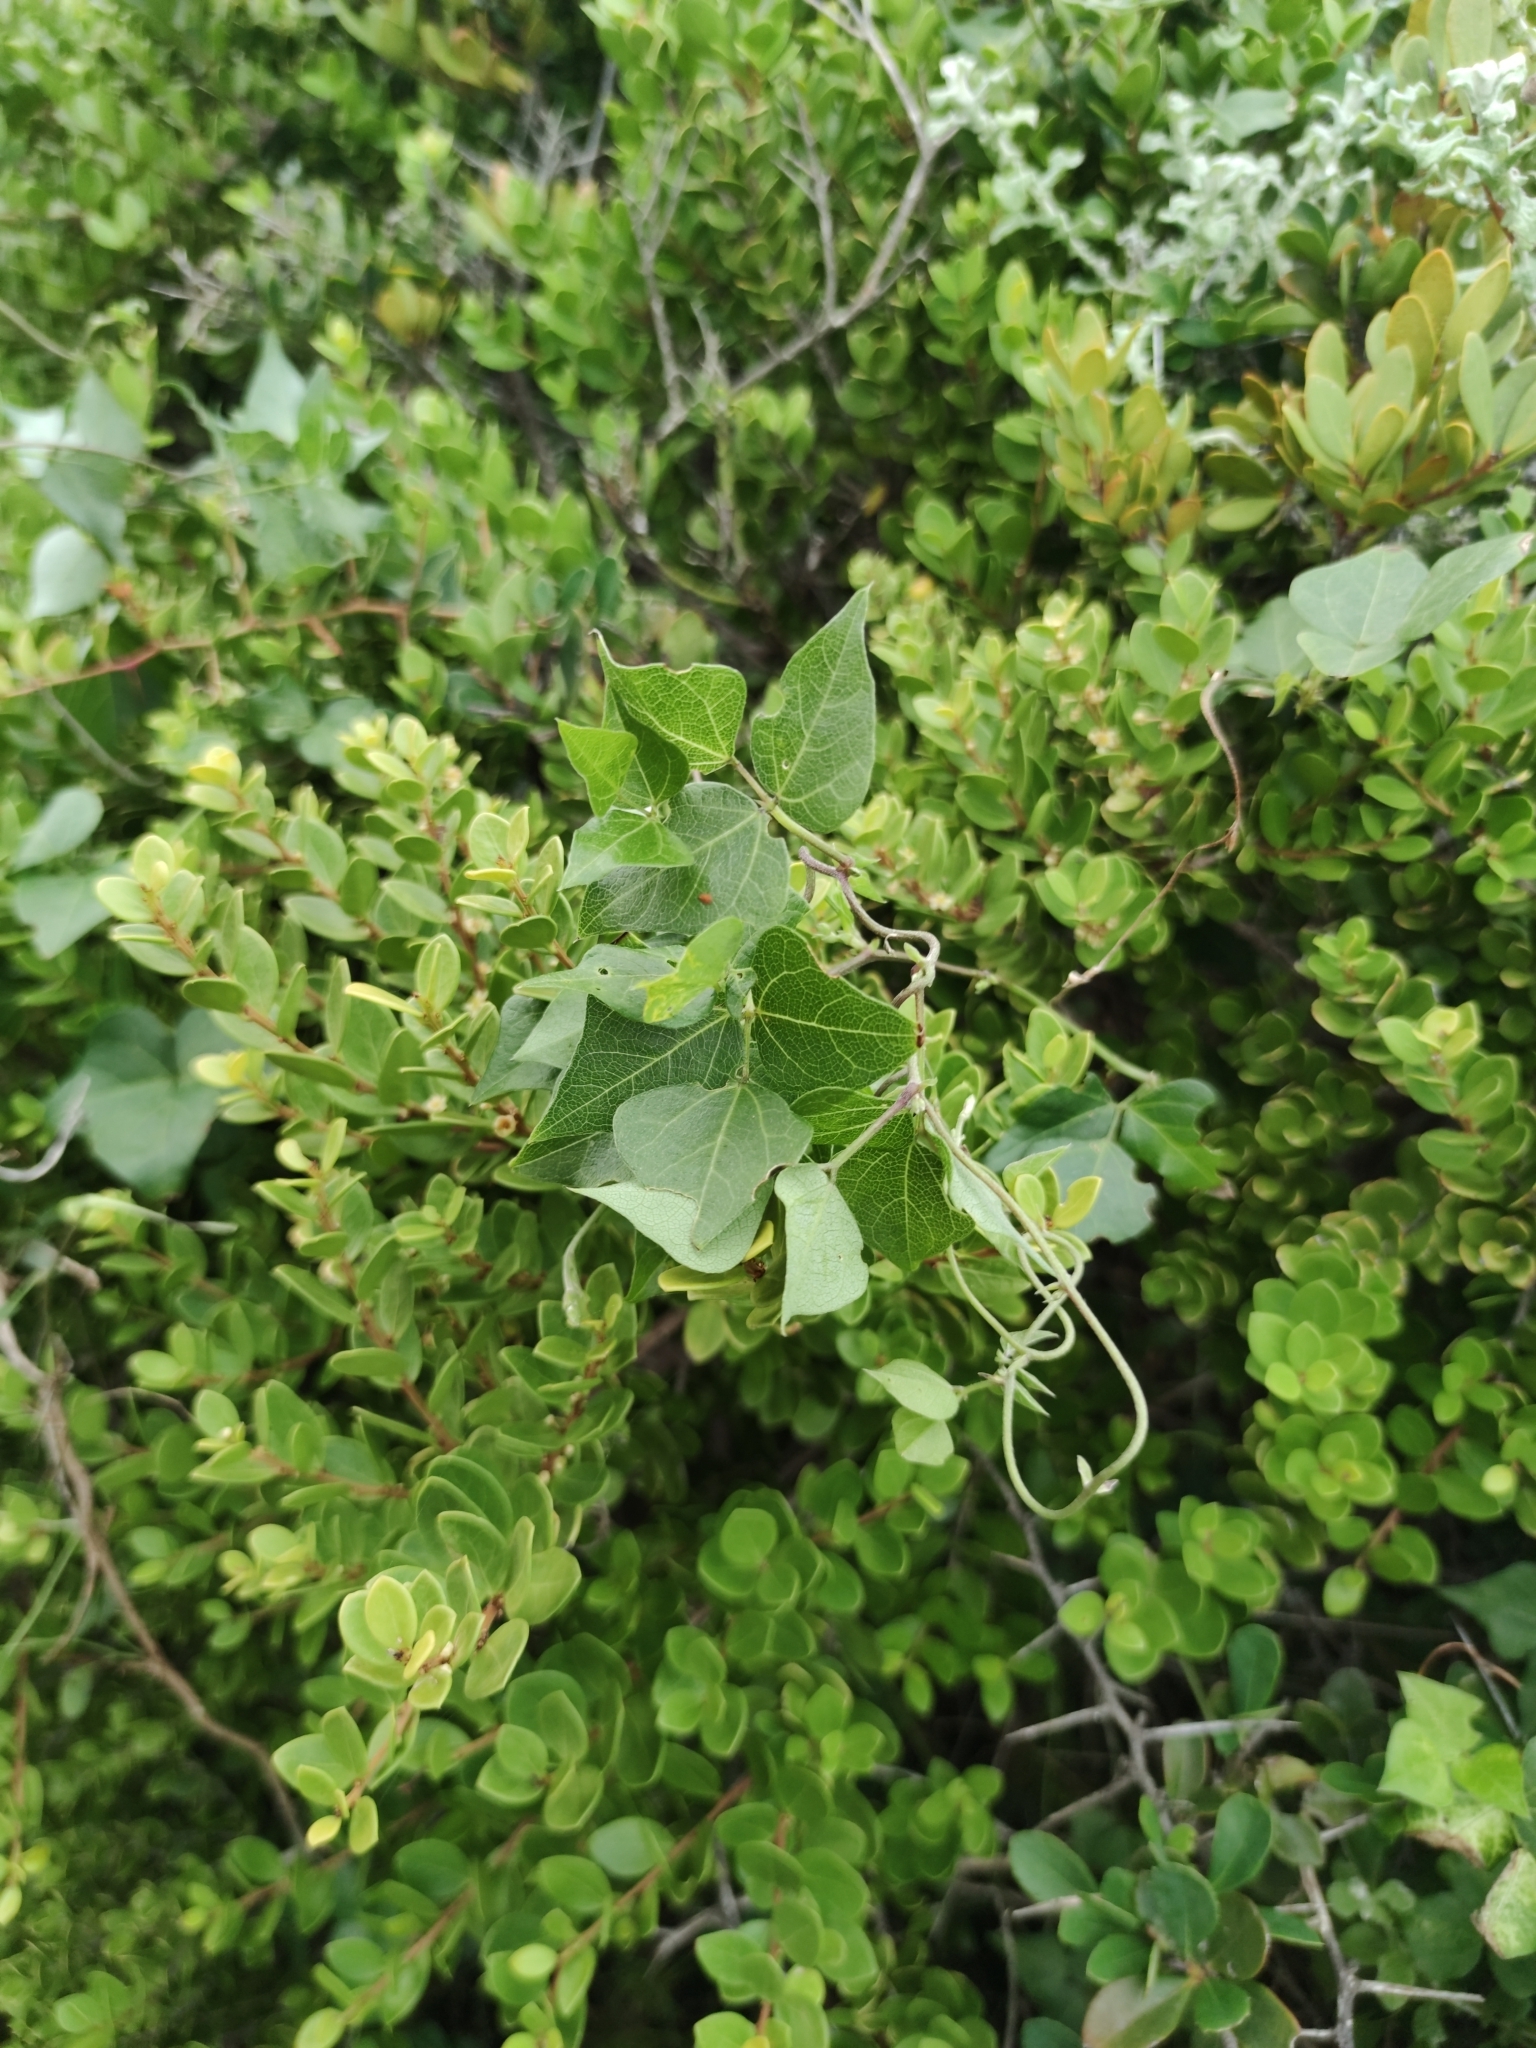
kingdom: Plantae
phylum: Tracheophyta
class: Magnoliopsida
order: Fabales
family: Fabaceae
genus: Dipogon
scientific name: Dipogon lignosus
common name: Okie bean
